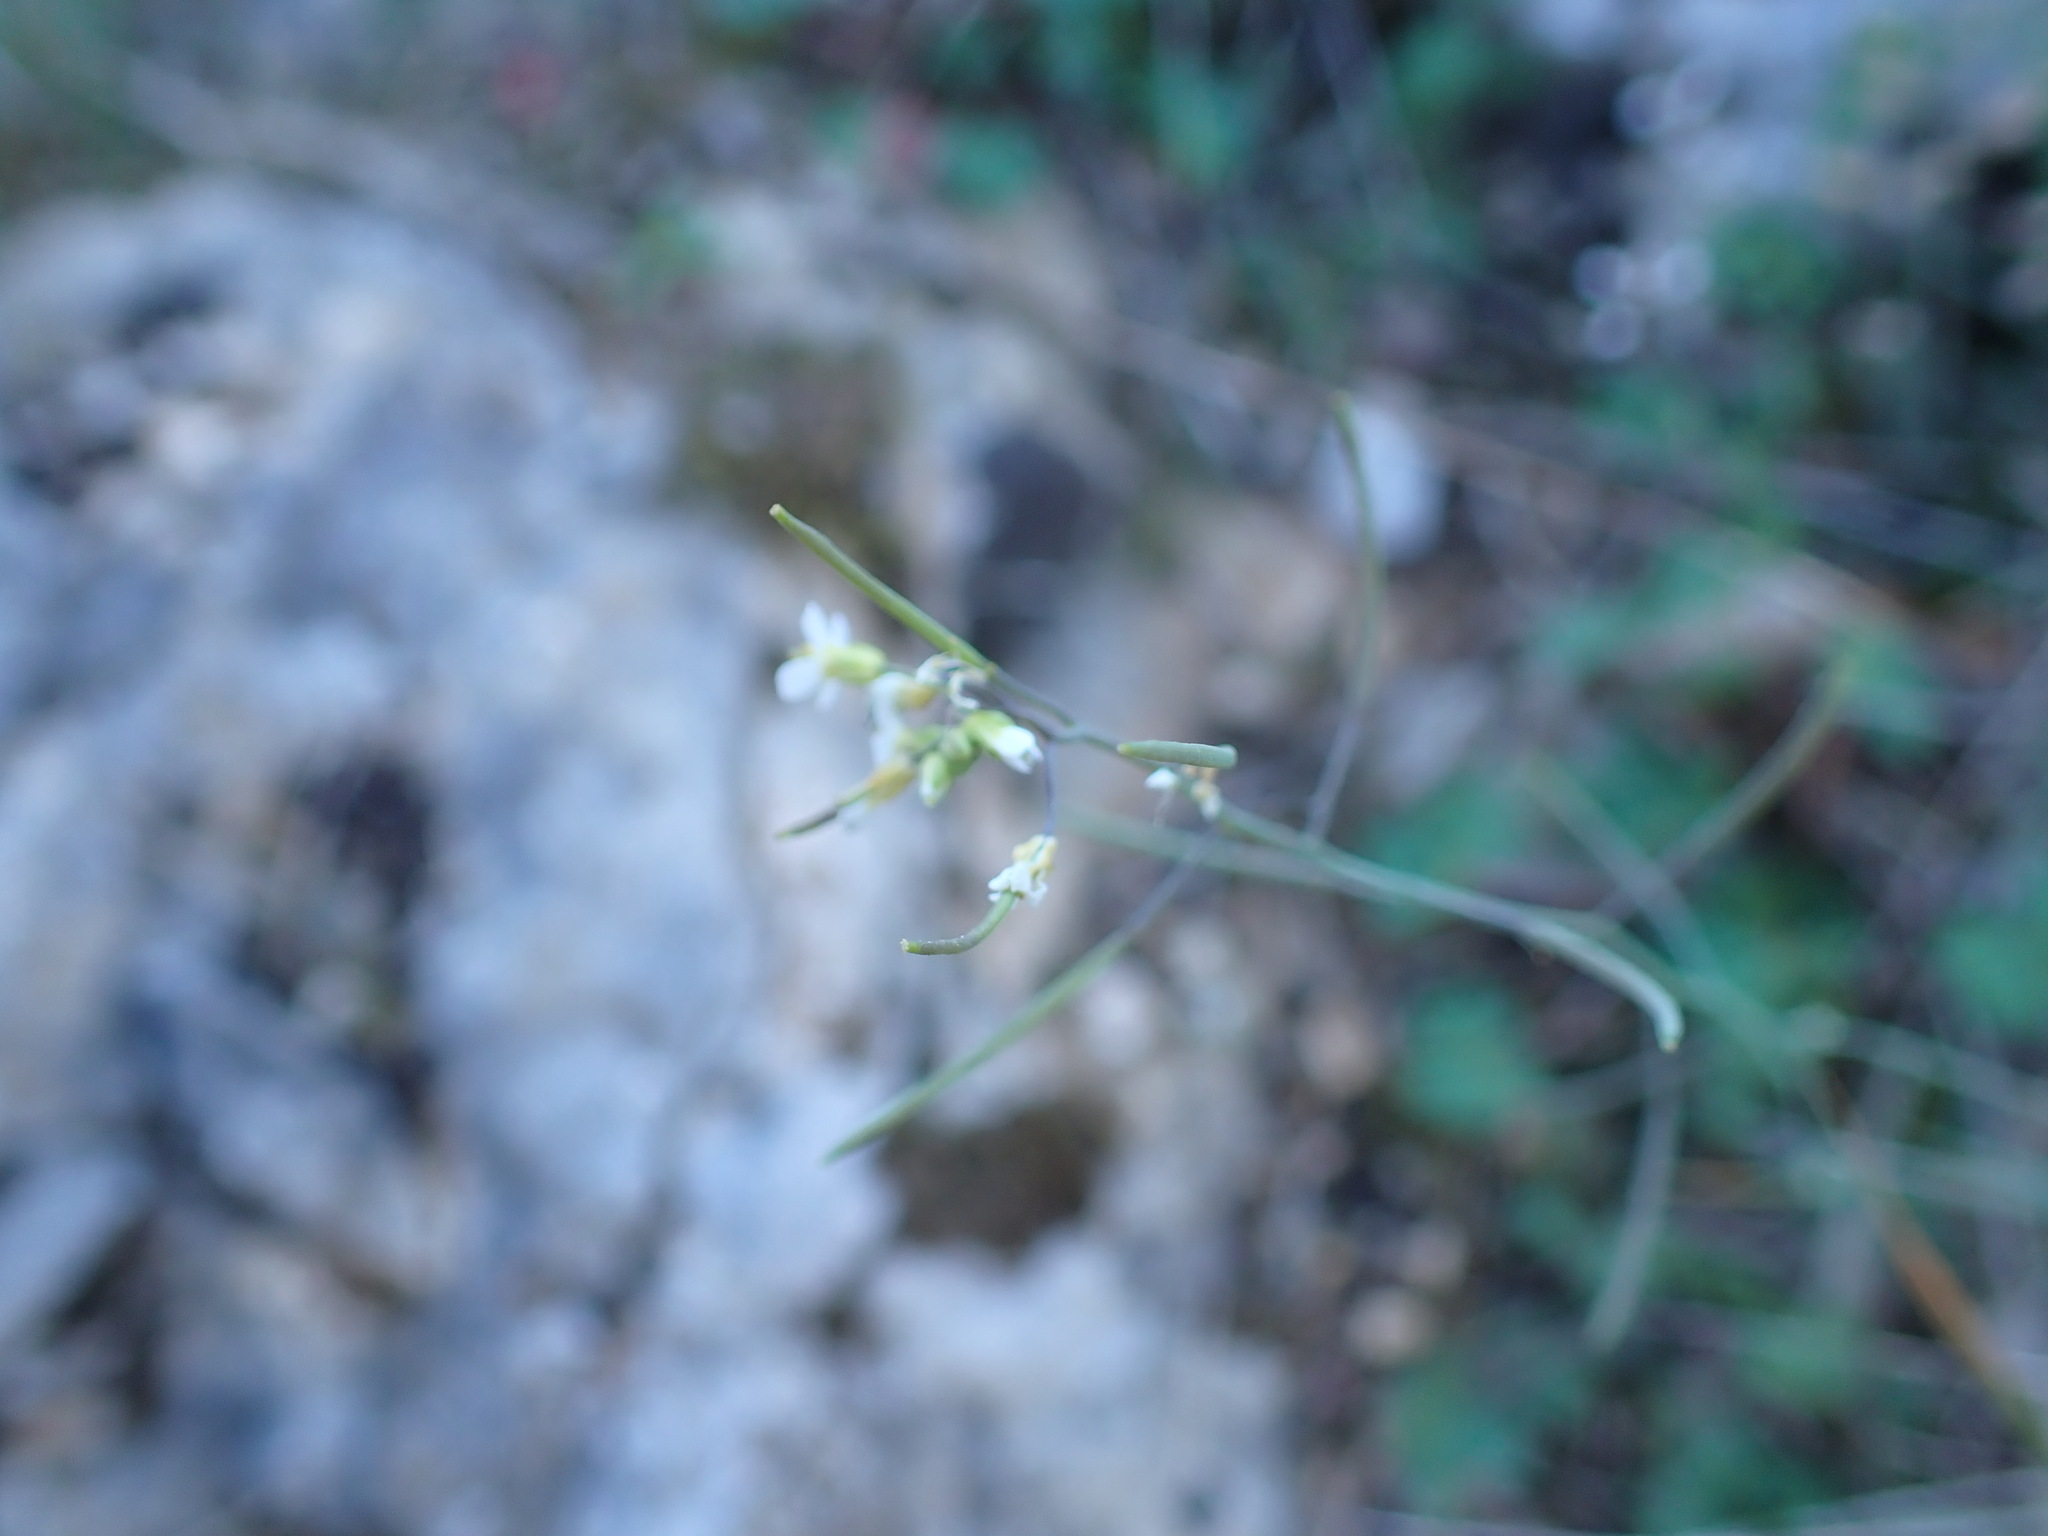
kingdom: Plantae
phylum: Tracheophyta
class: Magnoliopsida
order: Brassicales
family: Brassicaceae
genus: Arabidopsis
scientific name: Arabidopsis thaliana
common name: Thale cress
